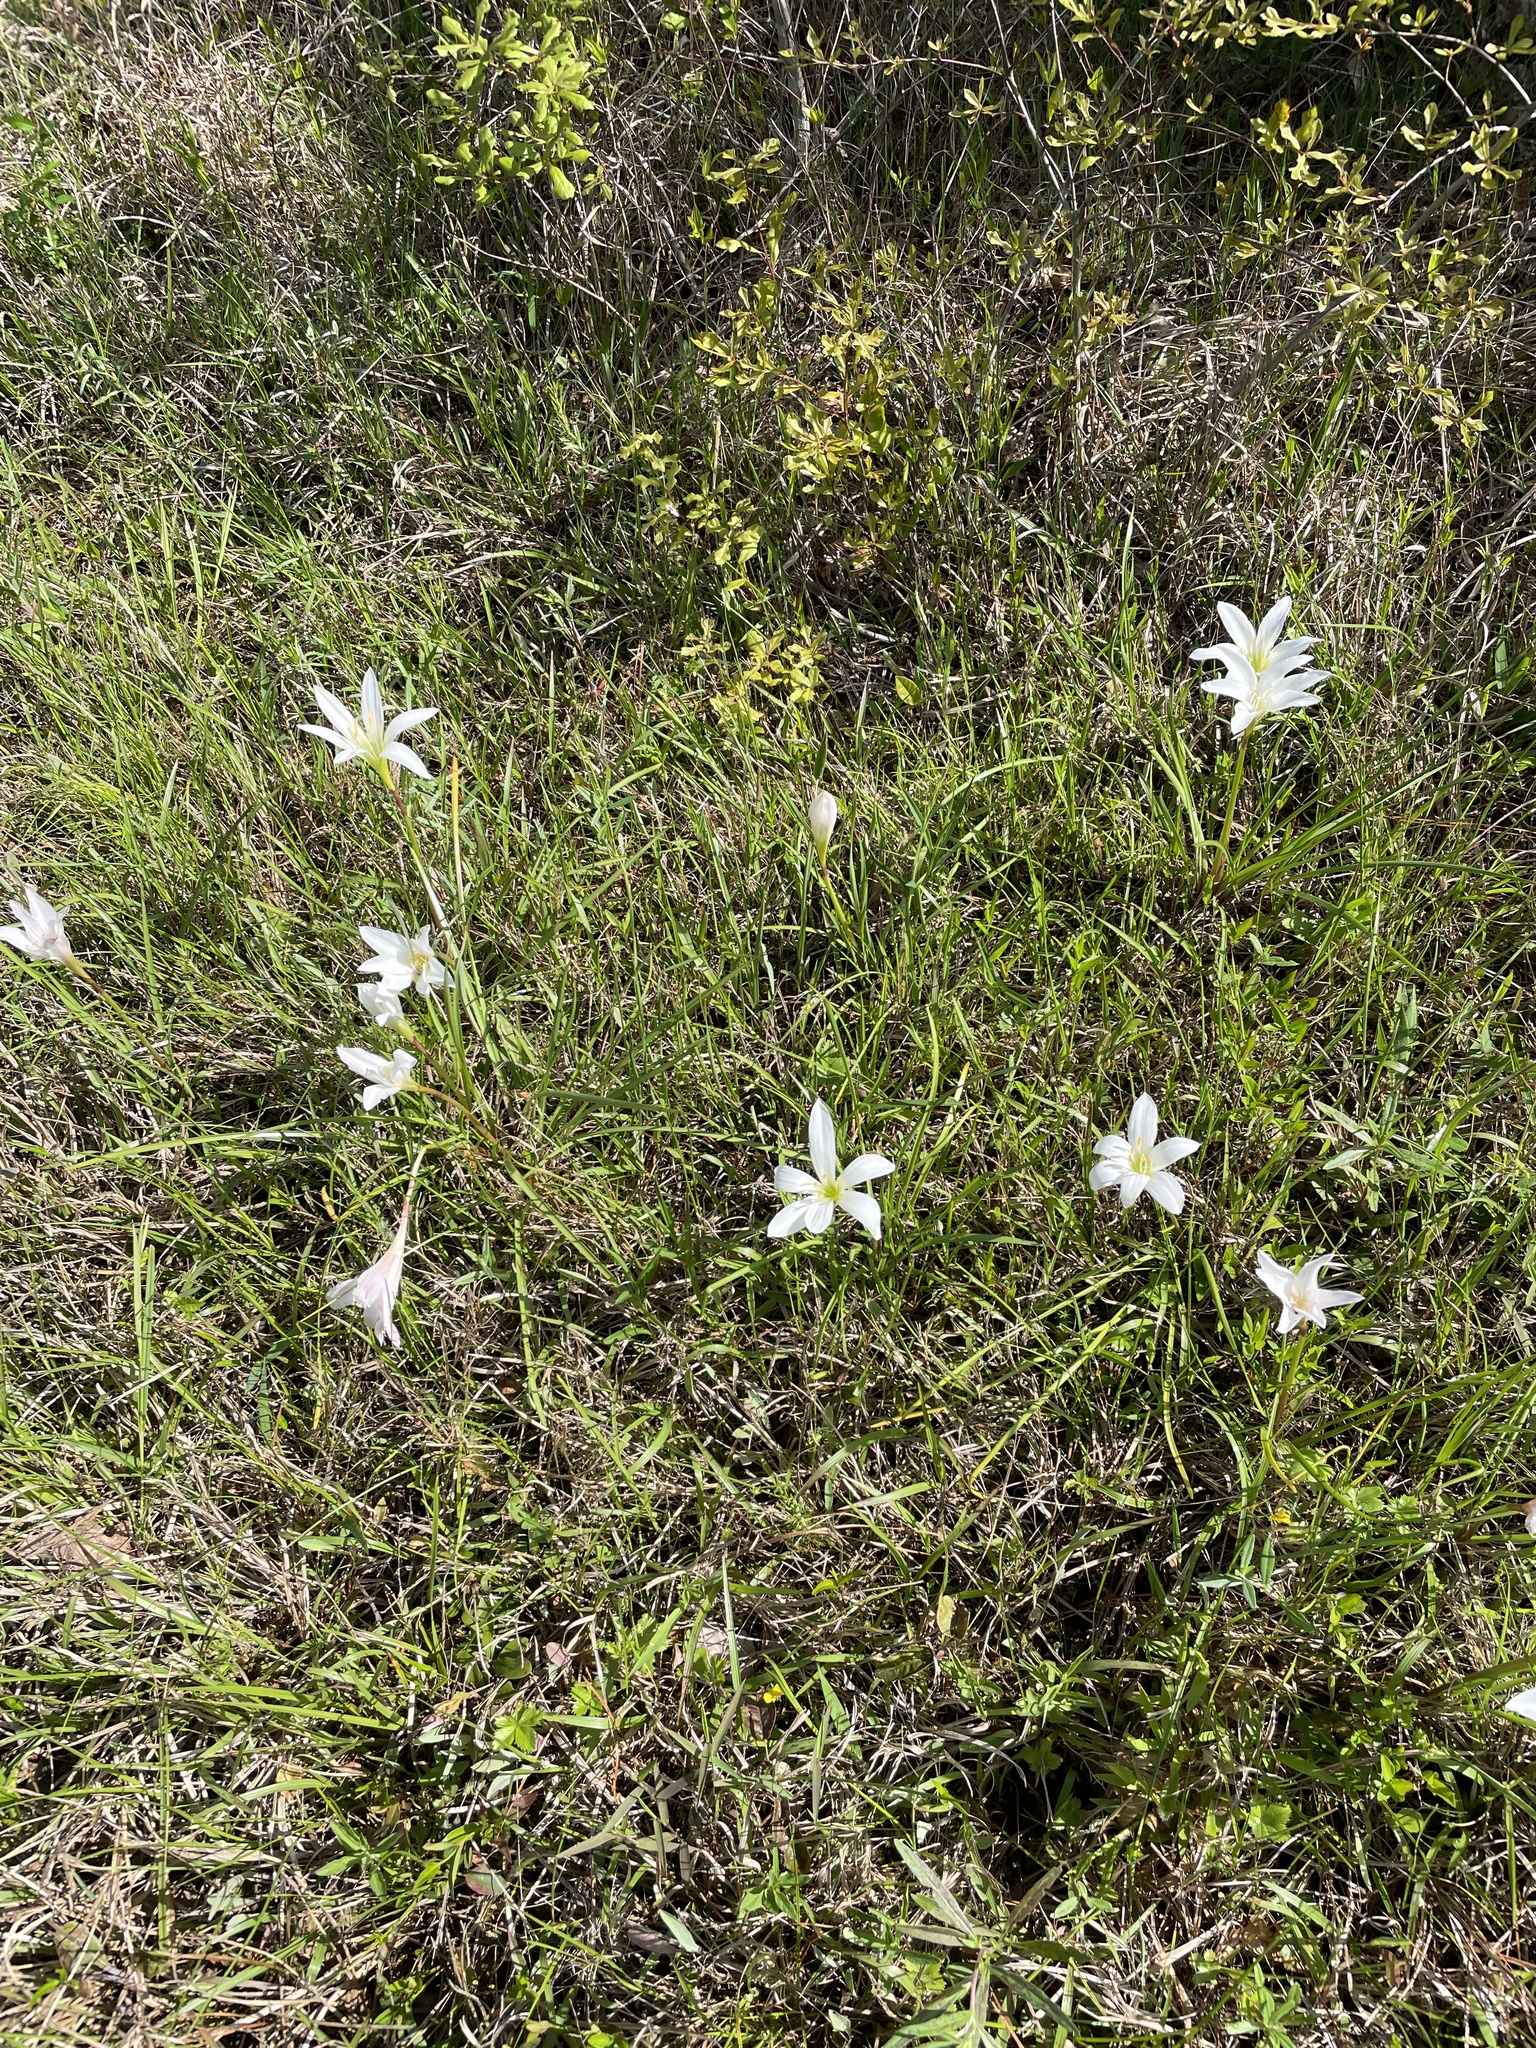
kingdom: Plantae
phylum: Tracheophyta
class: Liliopsida
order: Asparagales
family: Amaryllidaceae
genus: Zephyranthes
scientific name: Zephyranthes atamasco
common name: Atamasco lily
